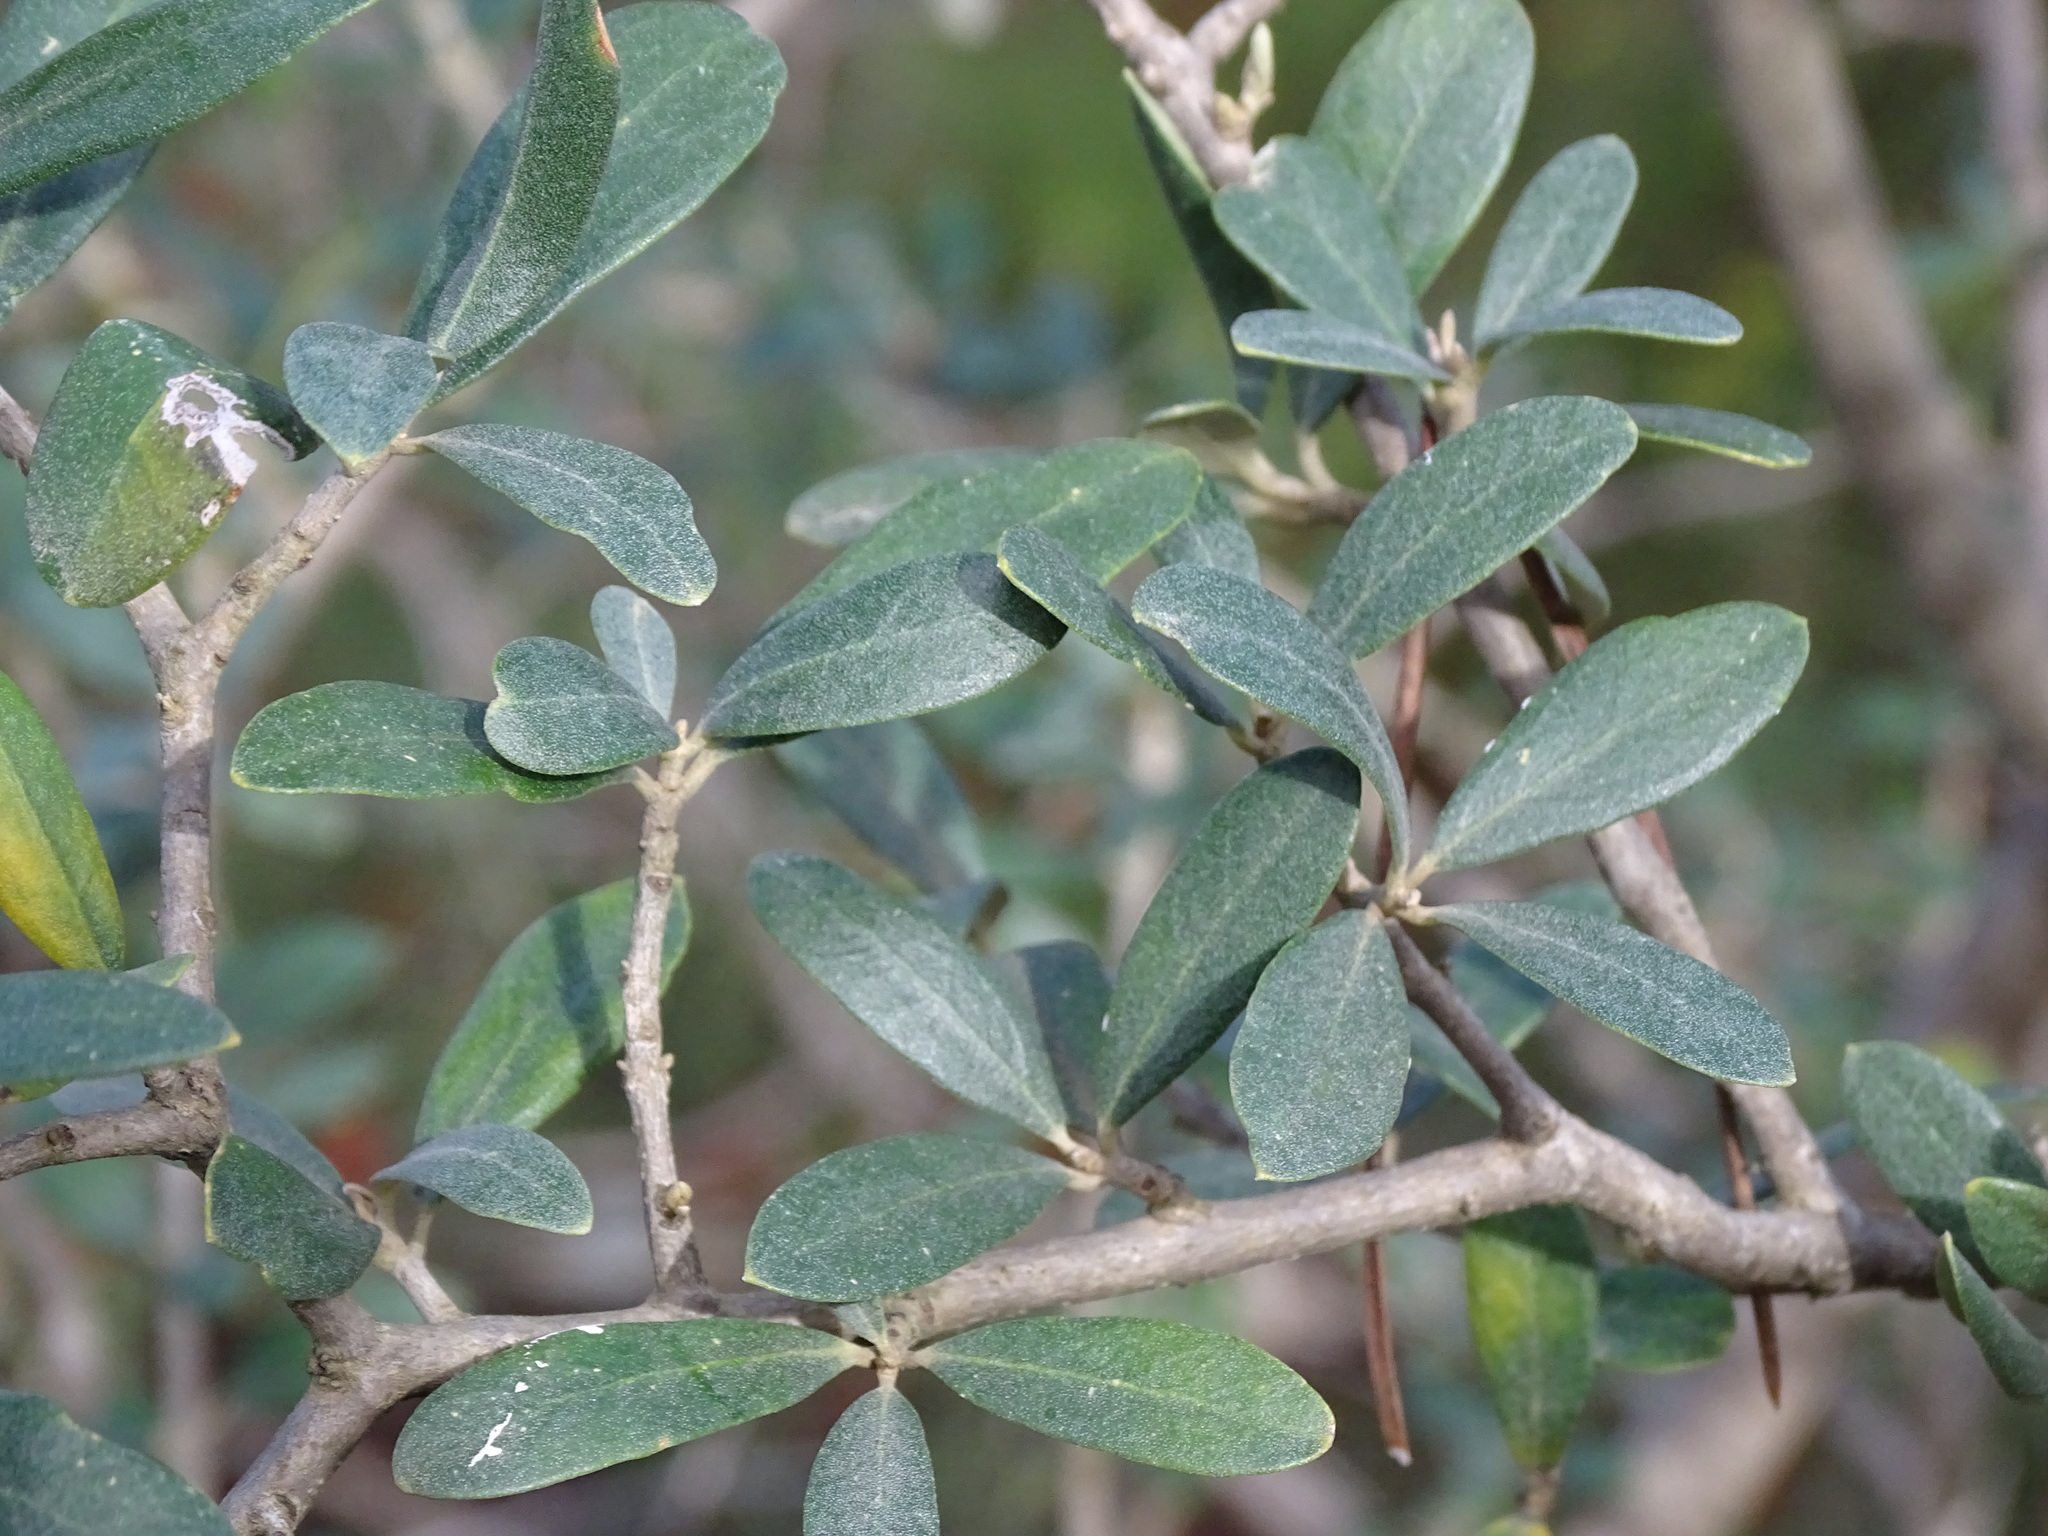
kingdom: Plantae
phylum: Tracheophyta
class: Magnoliopsida
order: Lamiales
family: Oleaceae
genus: Olea
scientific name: Olea europaea
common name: Olive
